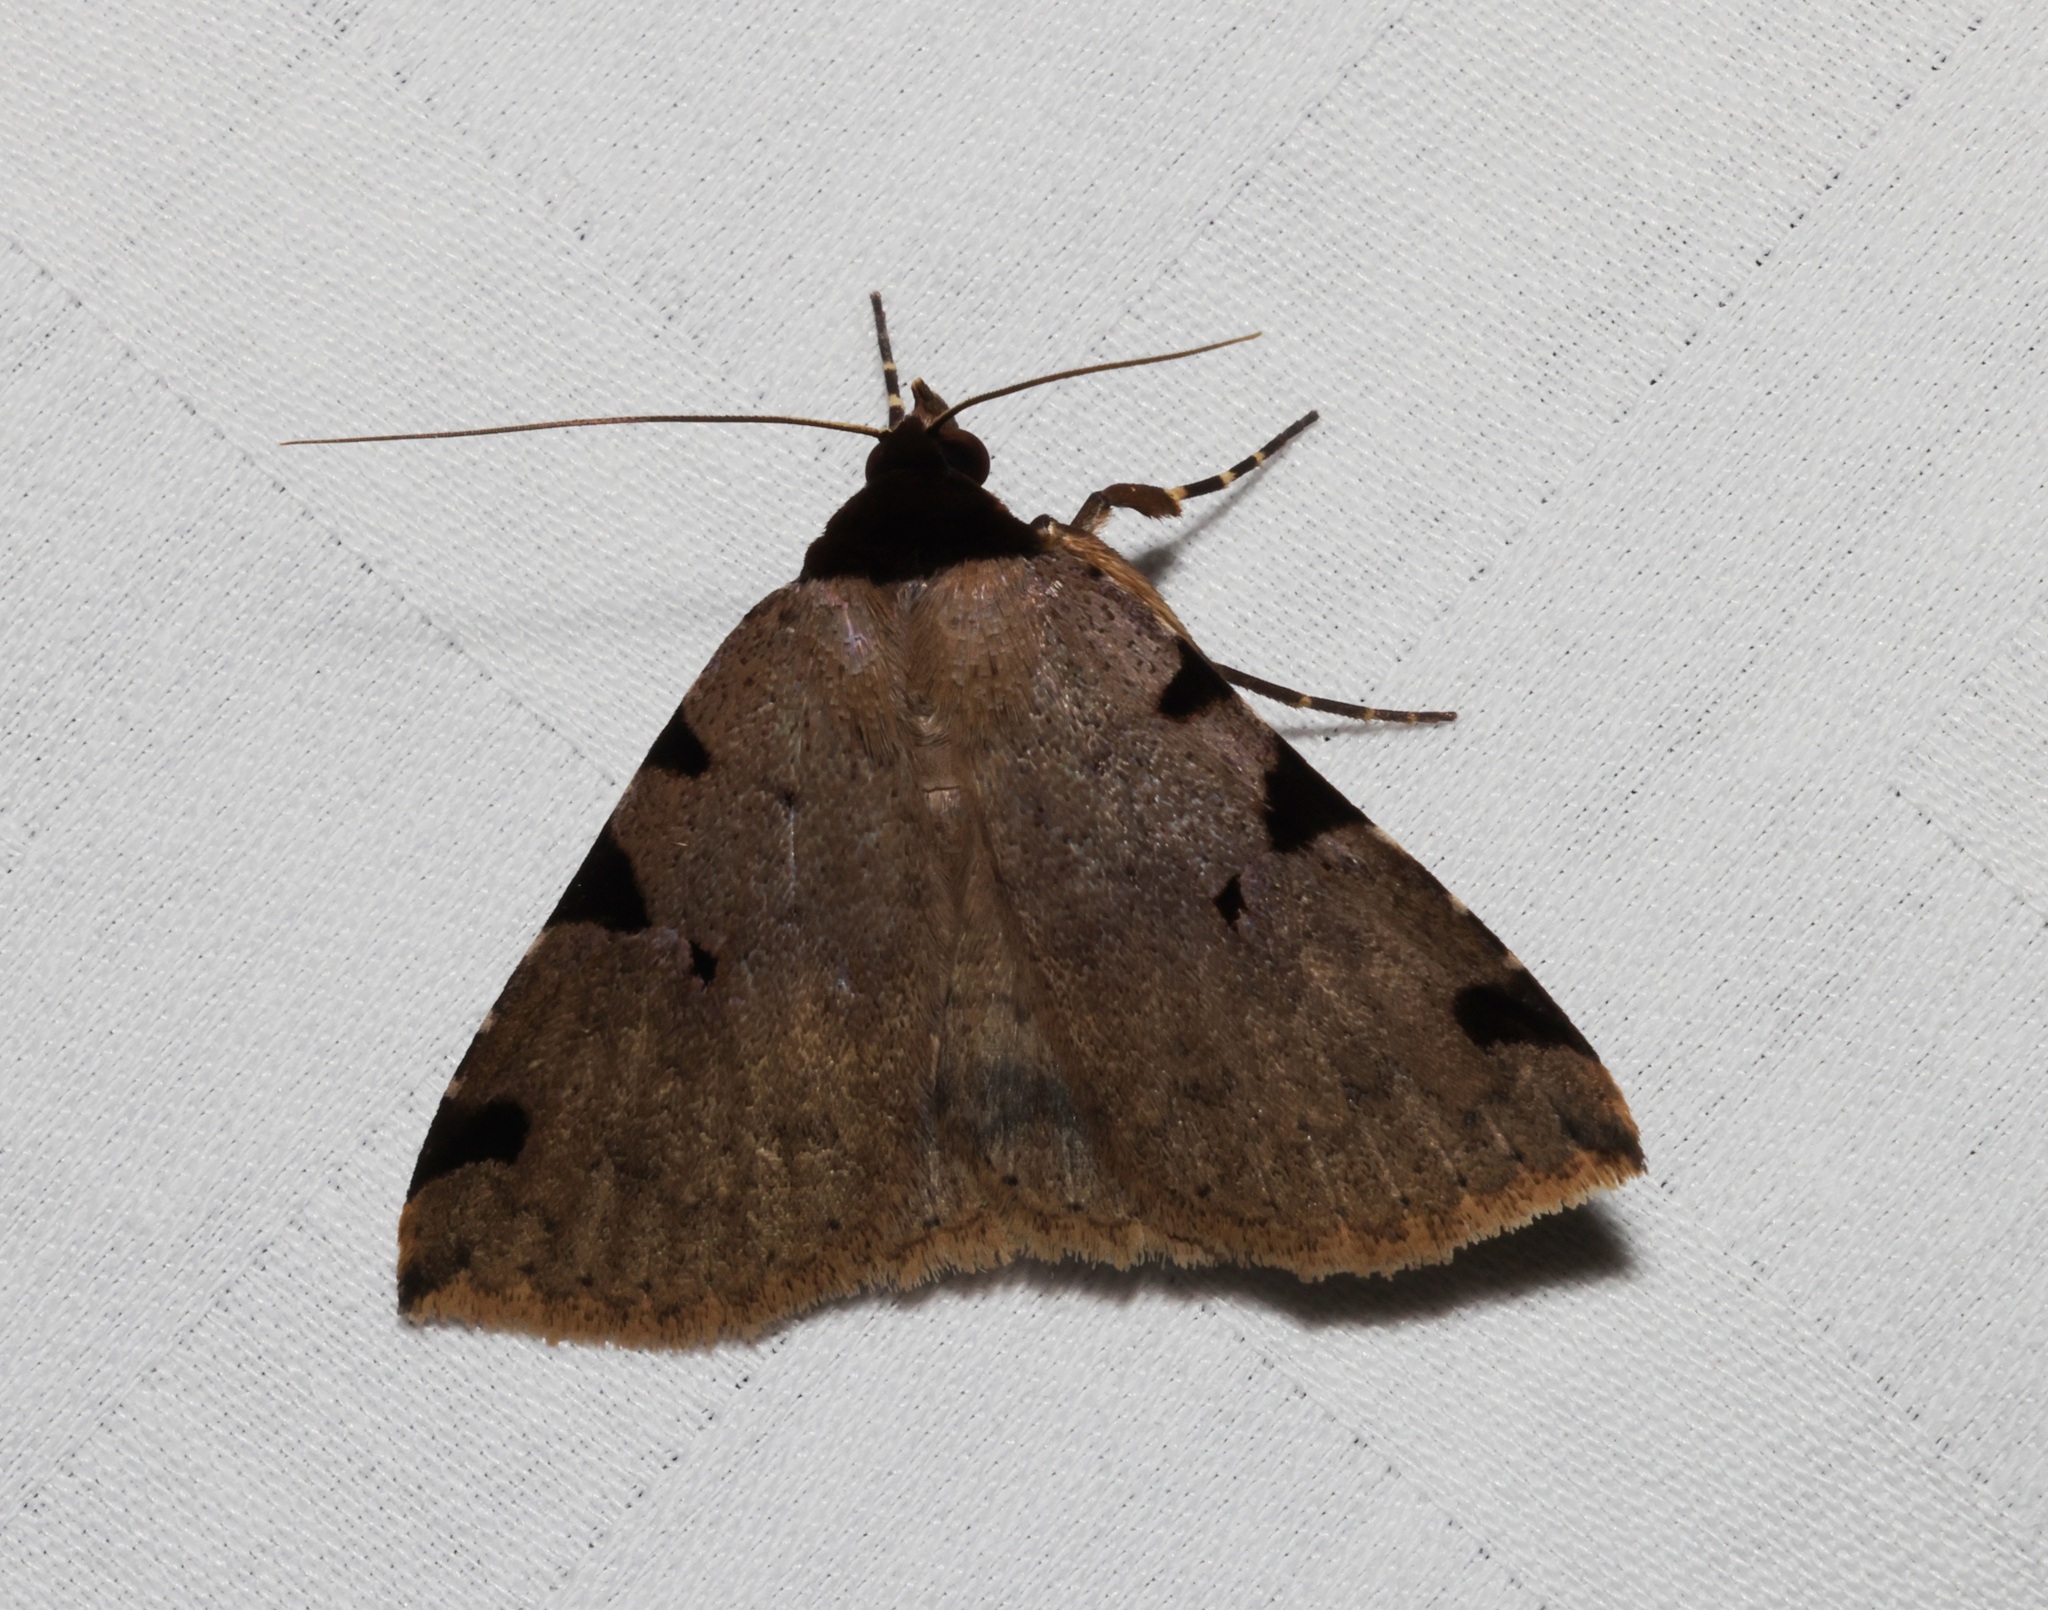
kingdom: Animalia
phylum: Arthropoda
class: Insecta
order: Lepidoptera
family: Erebidae
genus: Rema
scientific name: Rema costimacula
